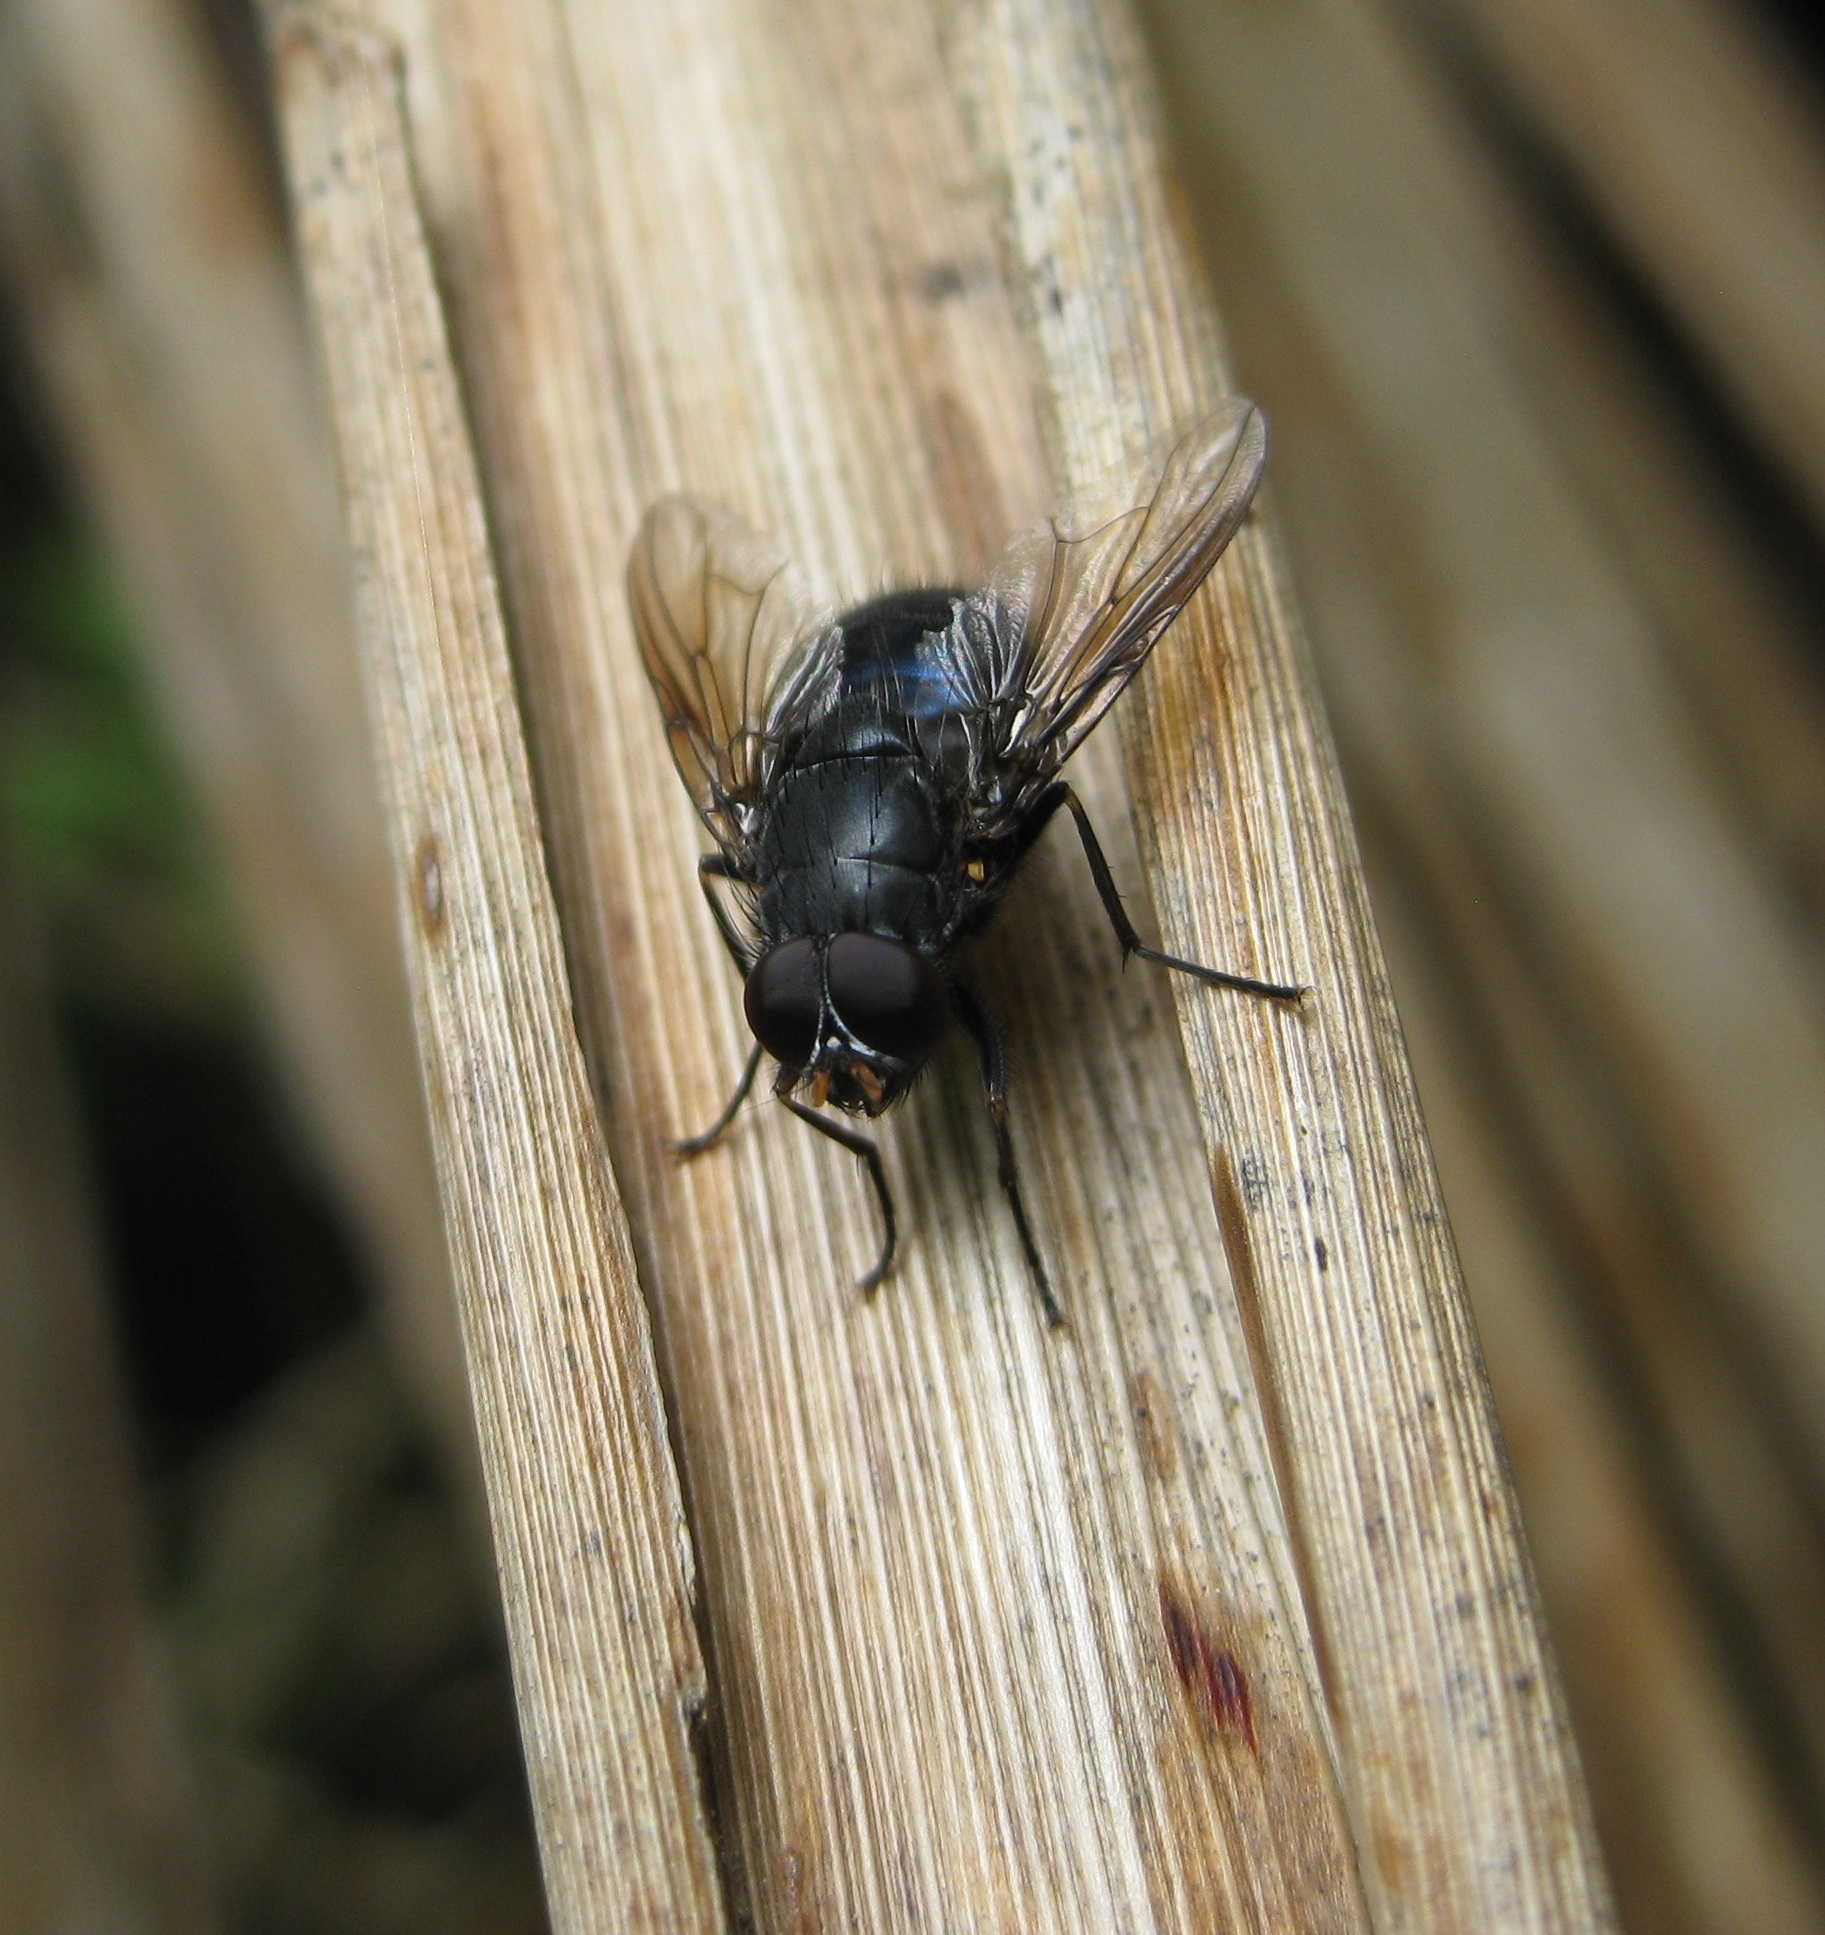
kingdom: Animalia
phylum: Arthropoda
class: Insecta
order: Diptera
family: Muscidae
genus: Calliphoroides
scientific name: Calliphoroides antennatis
